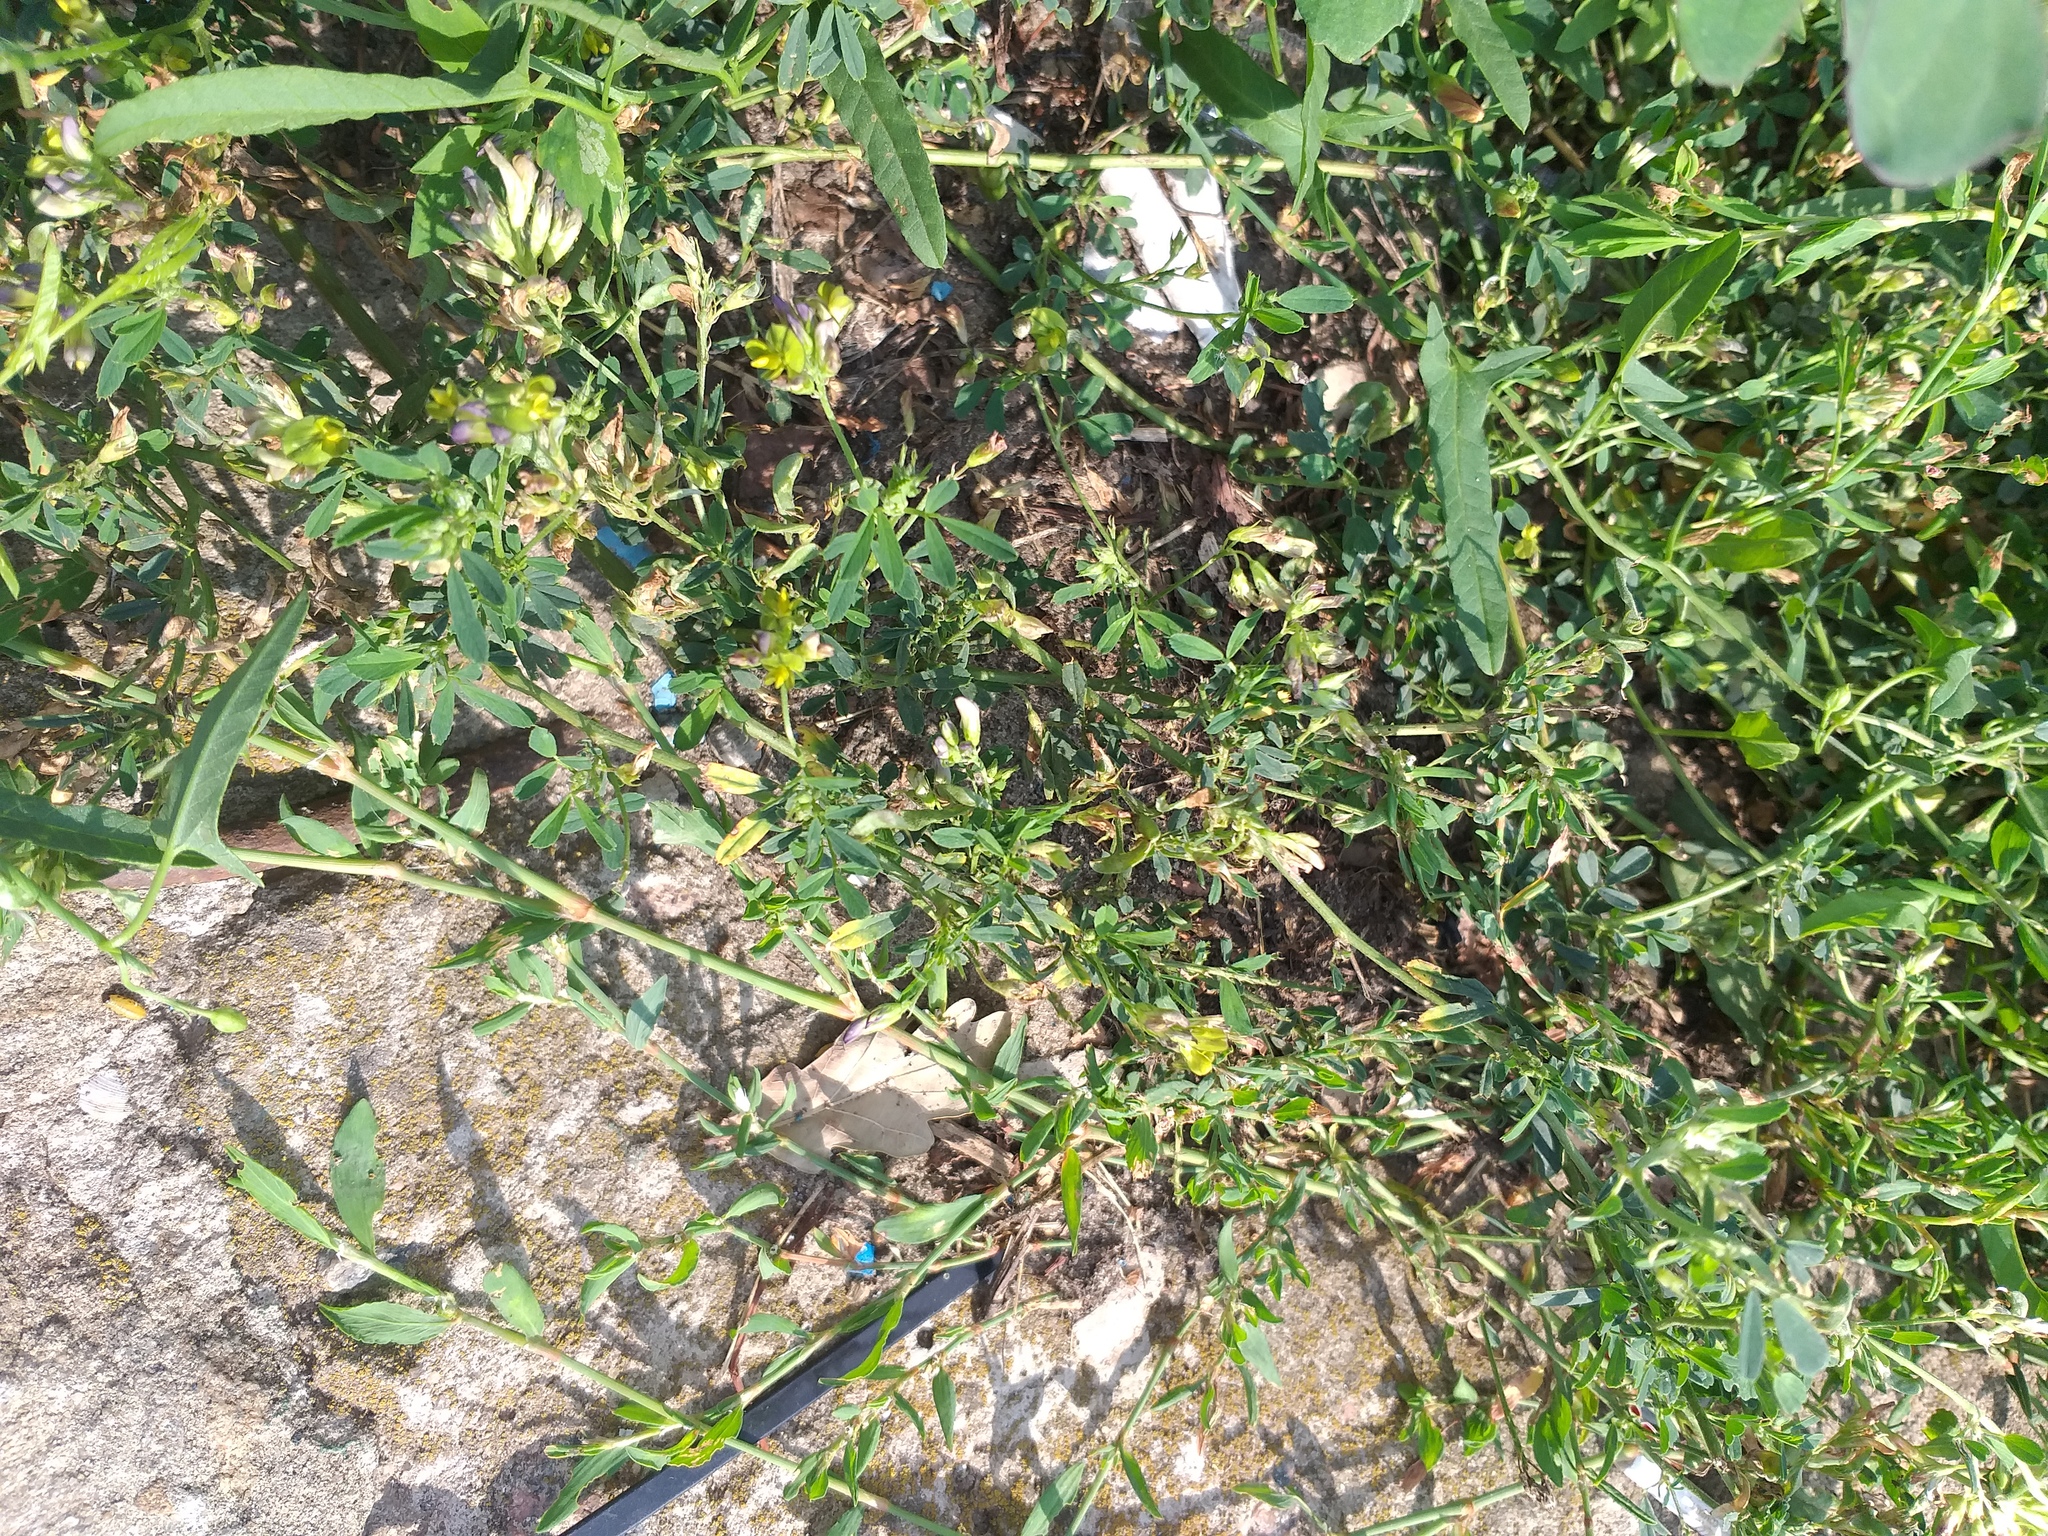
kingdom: Plantae
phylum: Tracheophyta
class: Magnoliopsida
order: Fabales
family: Fabaceae
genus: Medicago
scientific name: Medicago varia
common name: Sand lucerne
